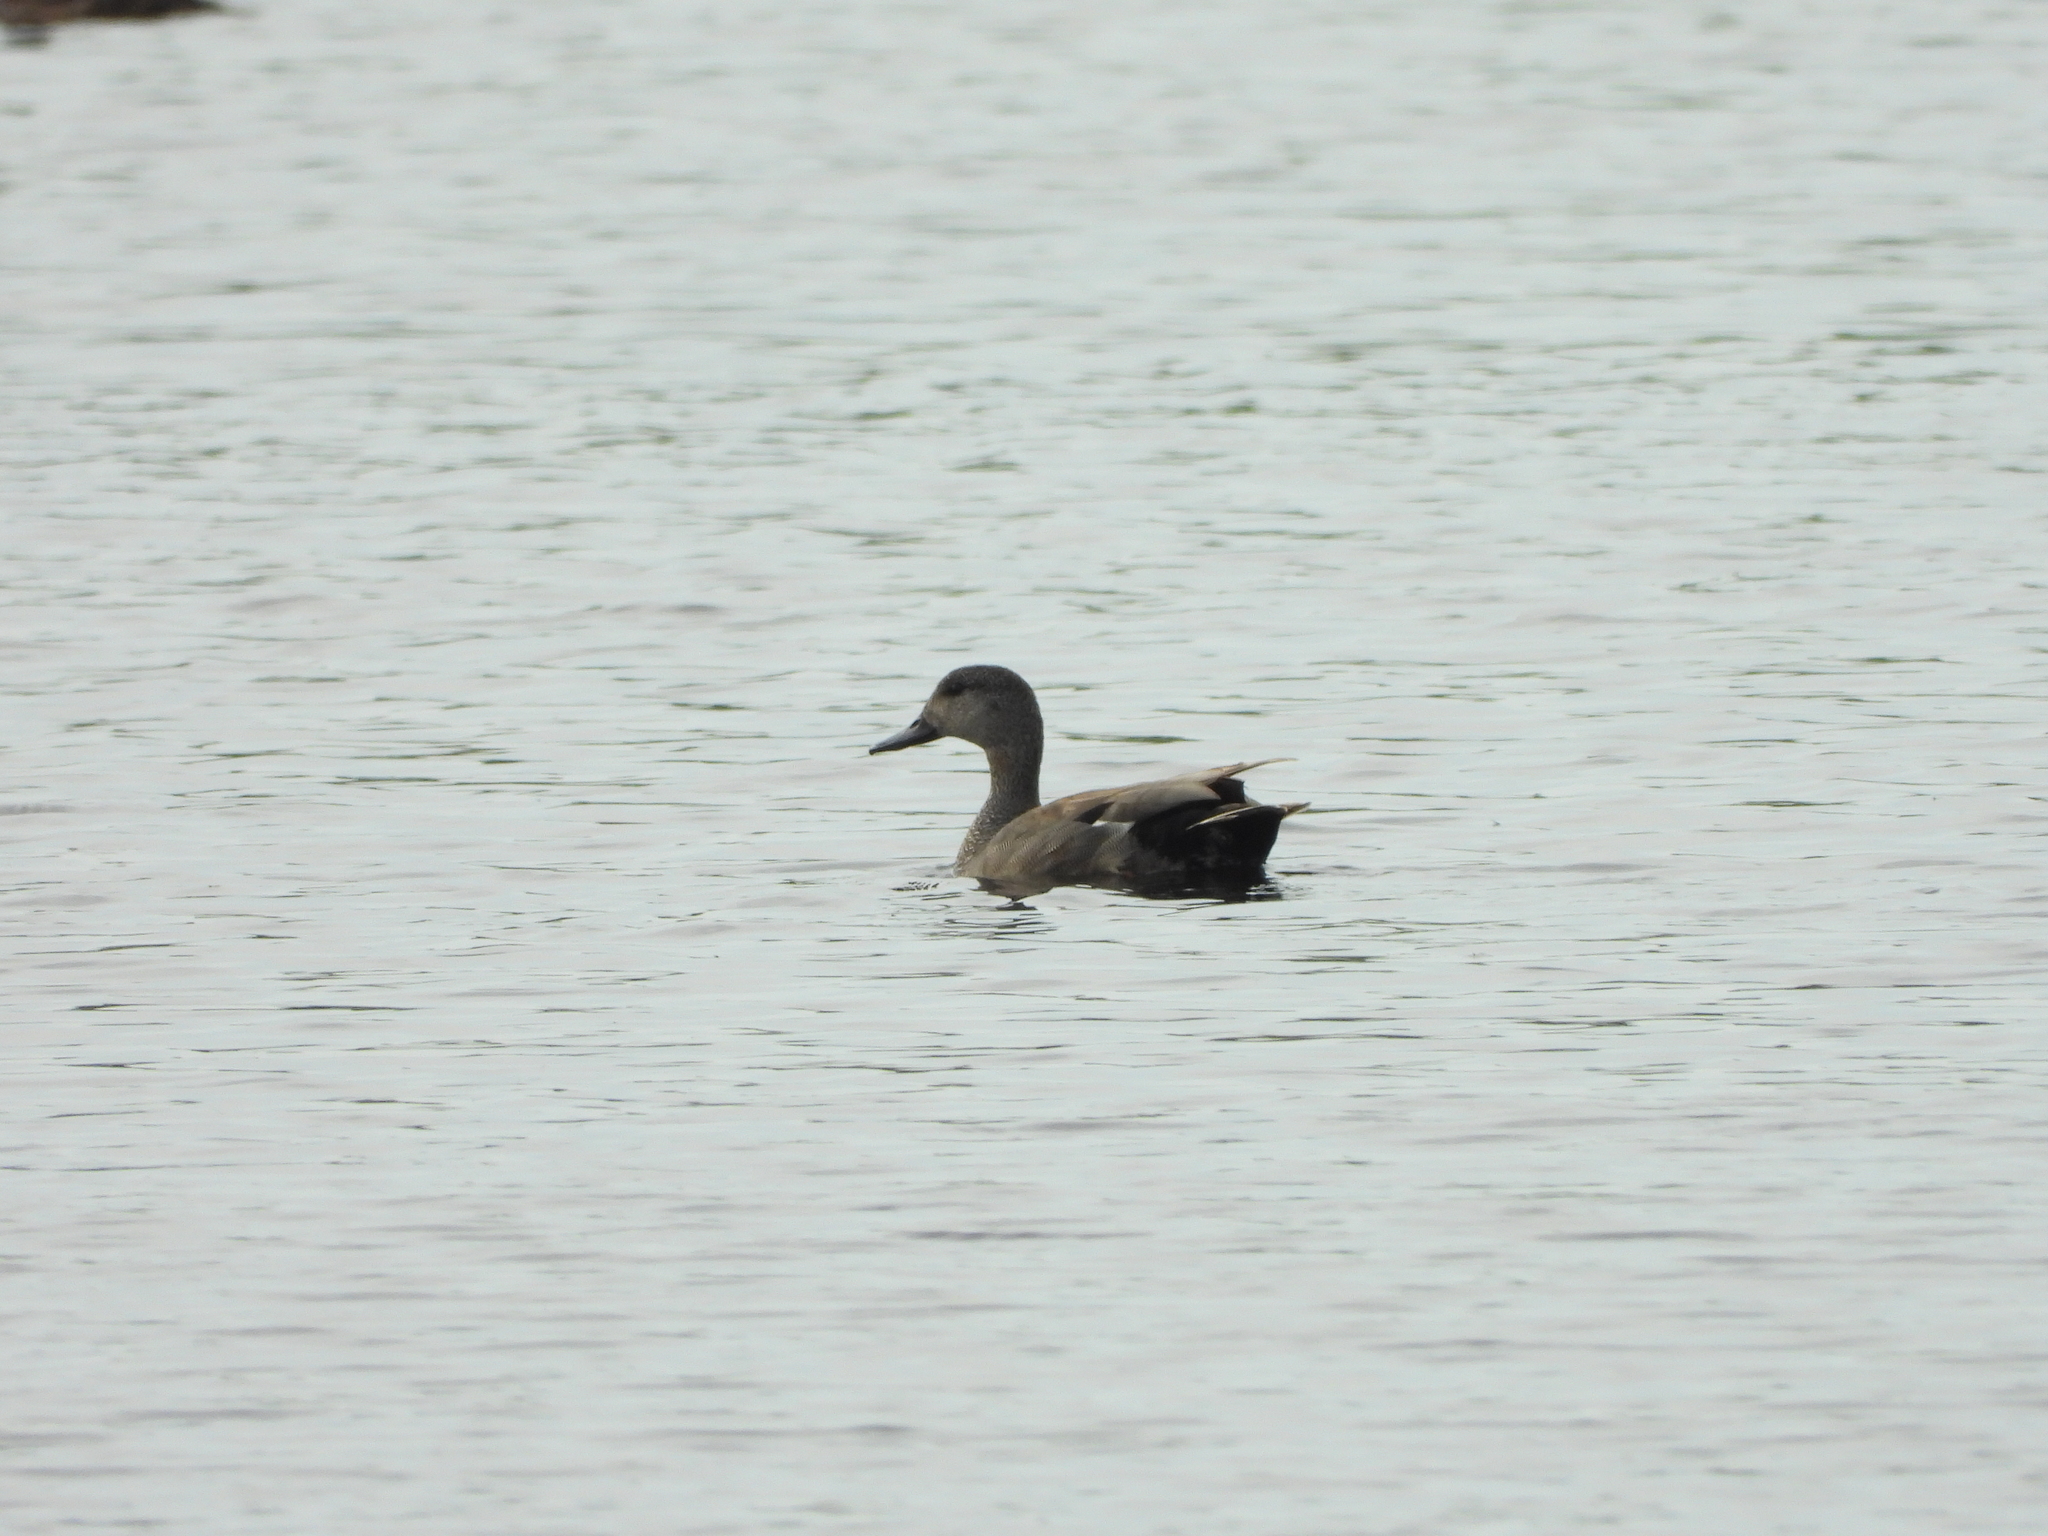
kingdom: Animalia
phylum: Chordata
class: Aves
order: Anseriformes
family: Anatidae
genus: Mareca
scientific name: Mareca strepera
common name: Gadwall
